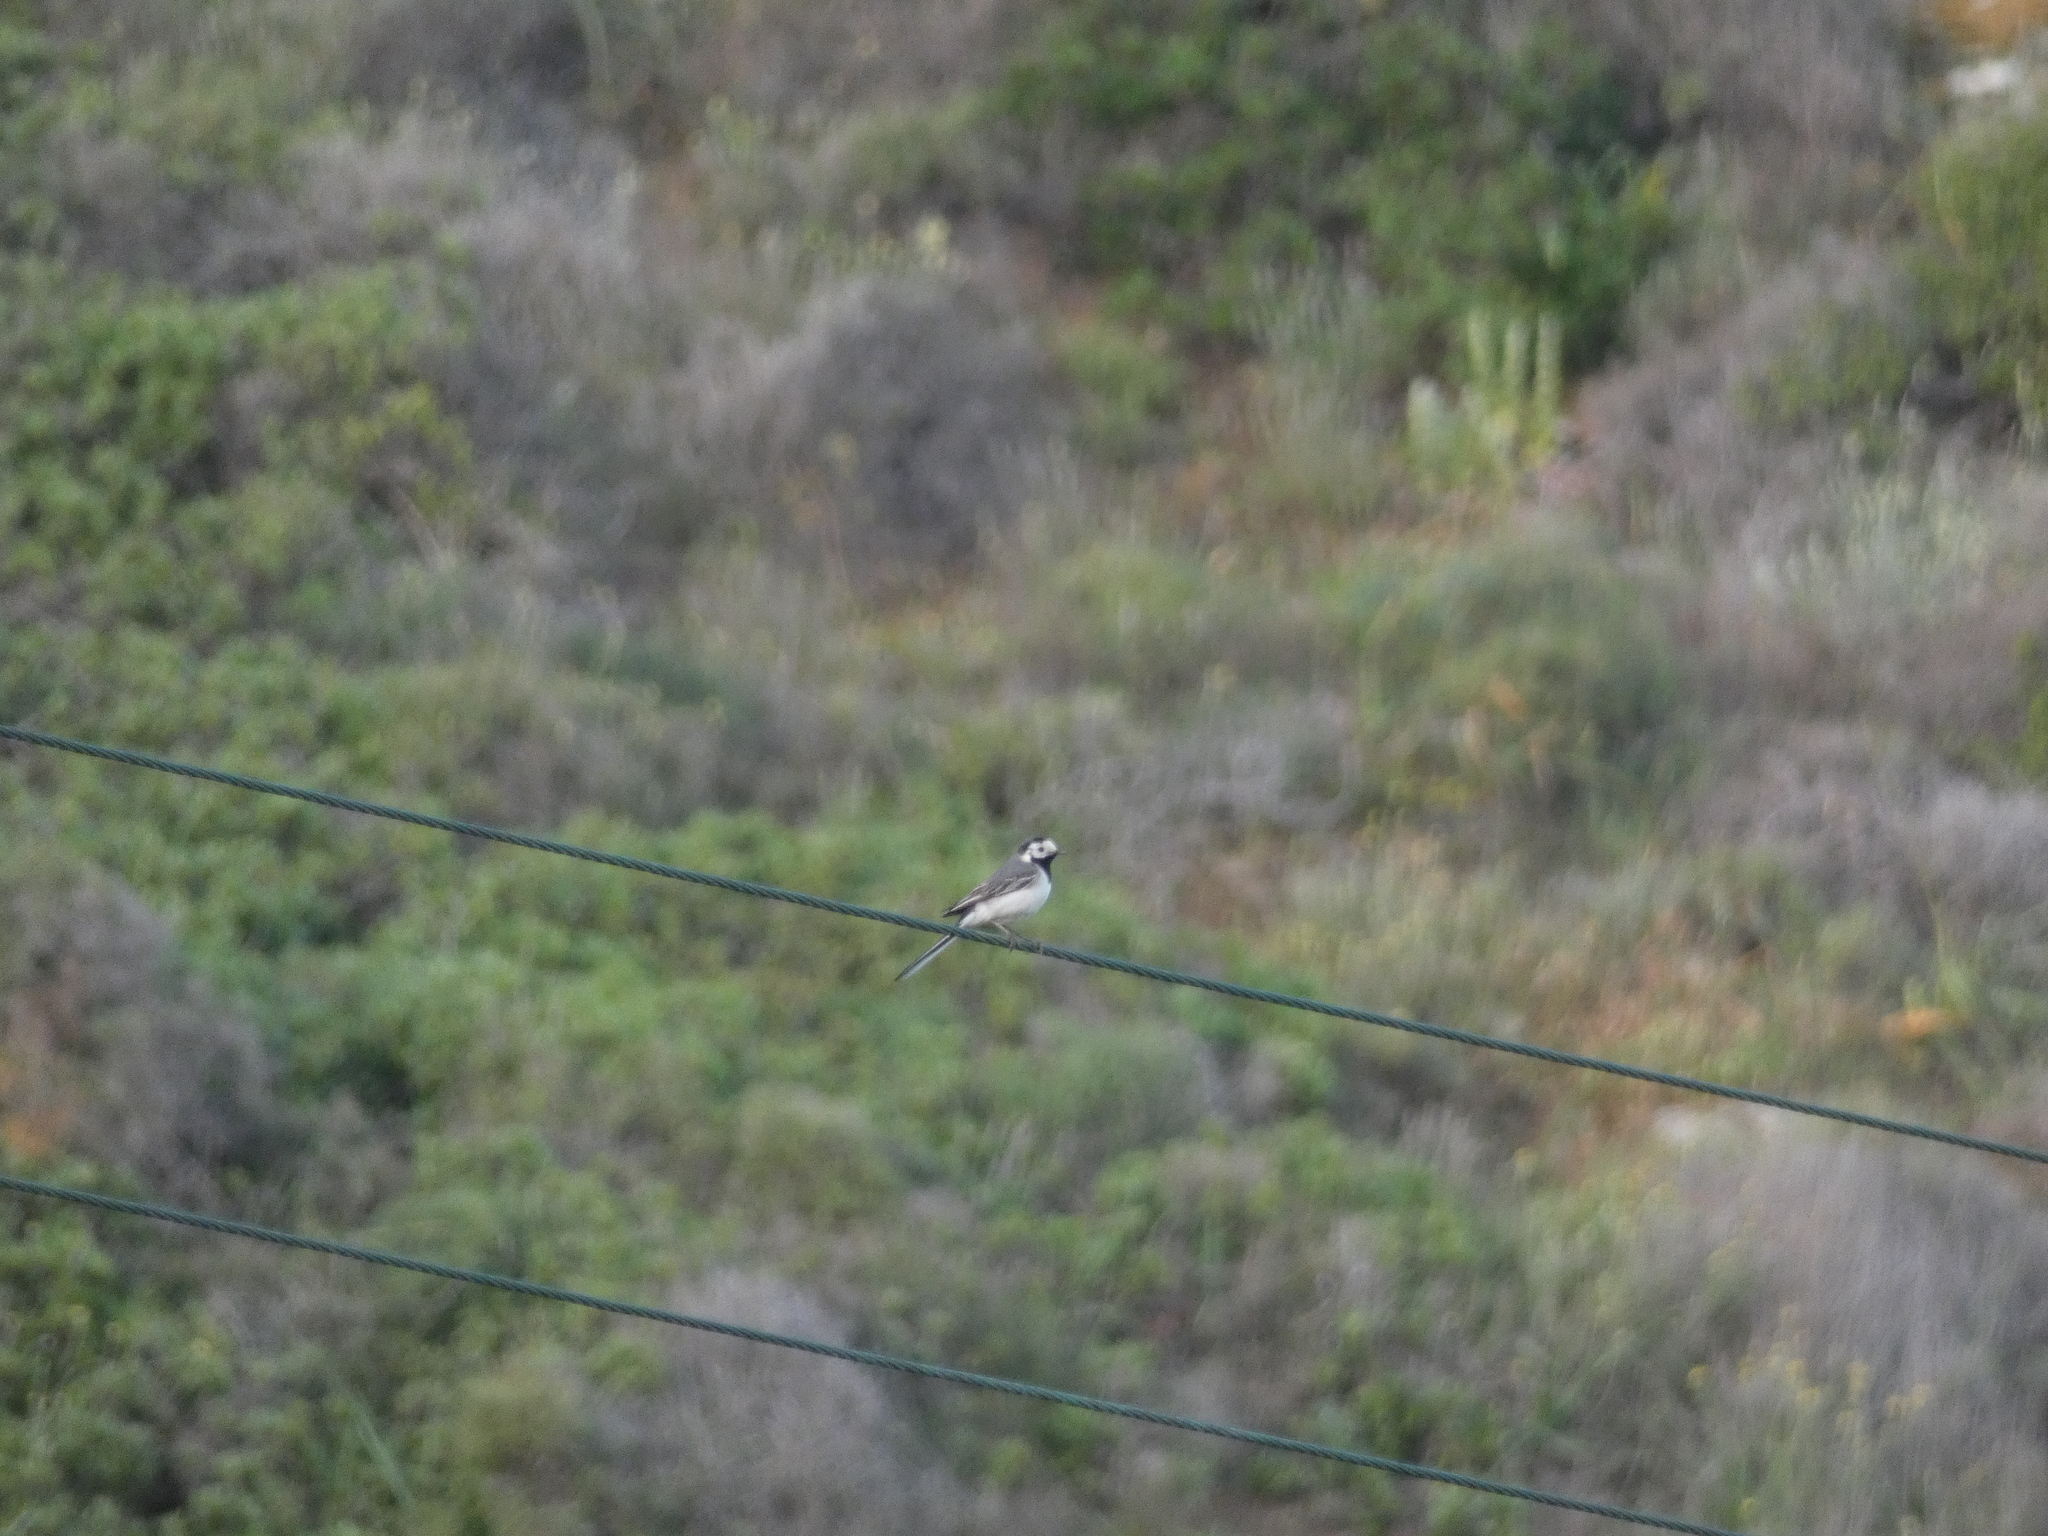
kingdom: Animalia
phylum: Chordata
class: Aves
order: Passeriformes
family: Motacillidae
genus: Motacilla
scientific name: Motacilla alba
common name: White wagtail
